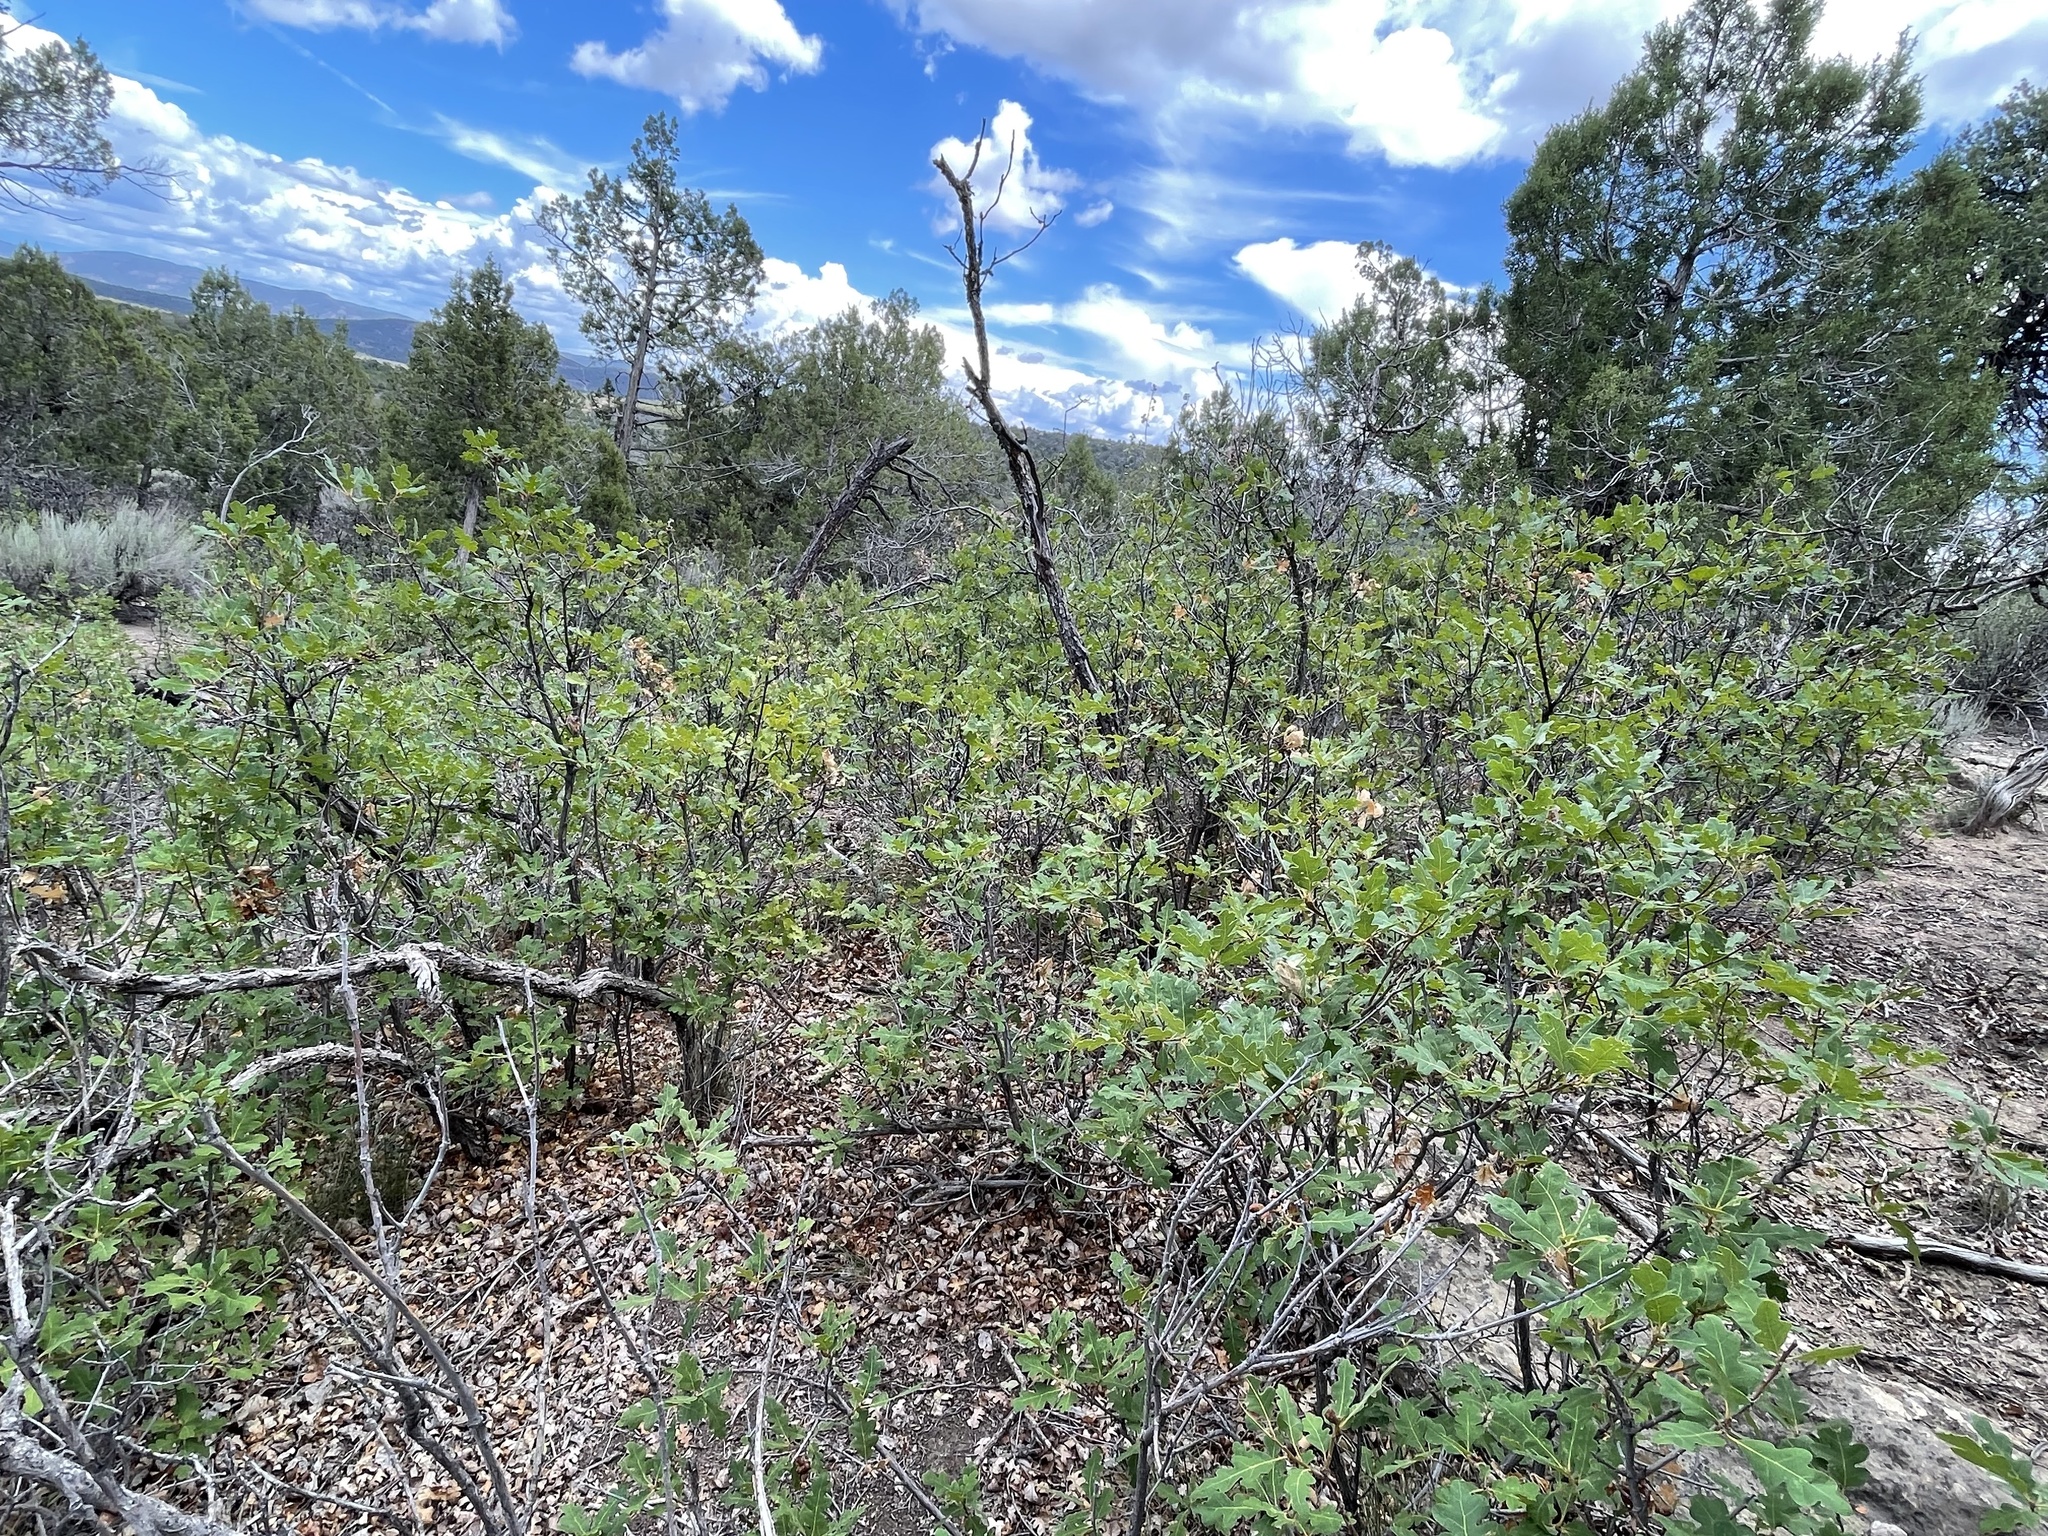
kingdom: Plantae
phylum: Tracheophyta
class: Magnoliopsida
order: Fagales
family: Fagaceae
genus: Quercus
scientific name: Quercus gambelii
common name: Gambel oak
